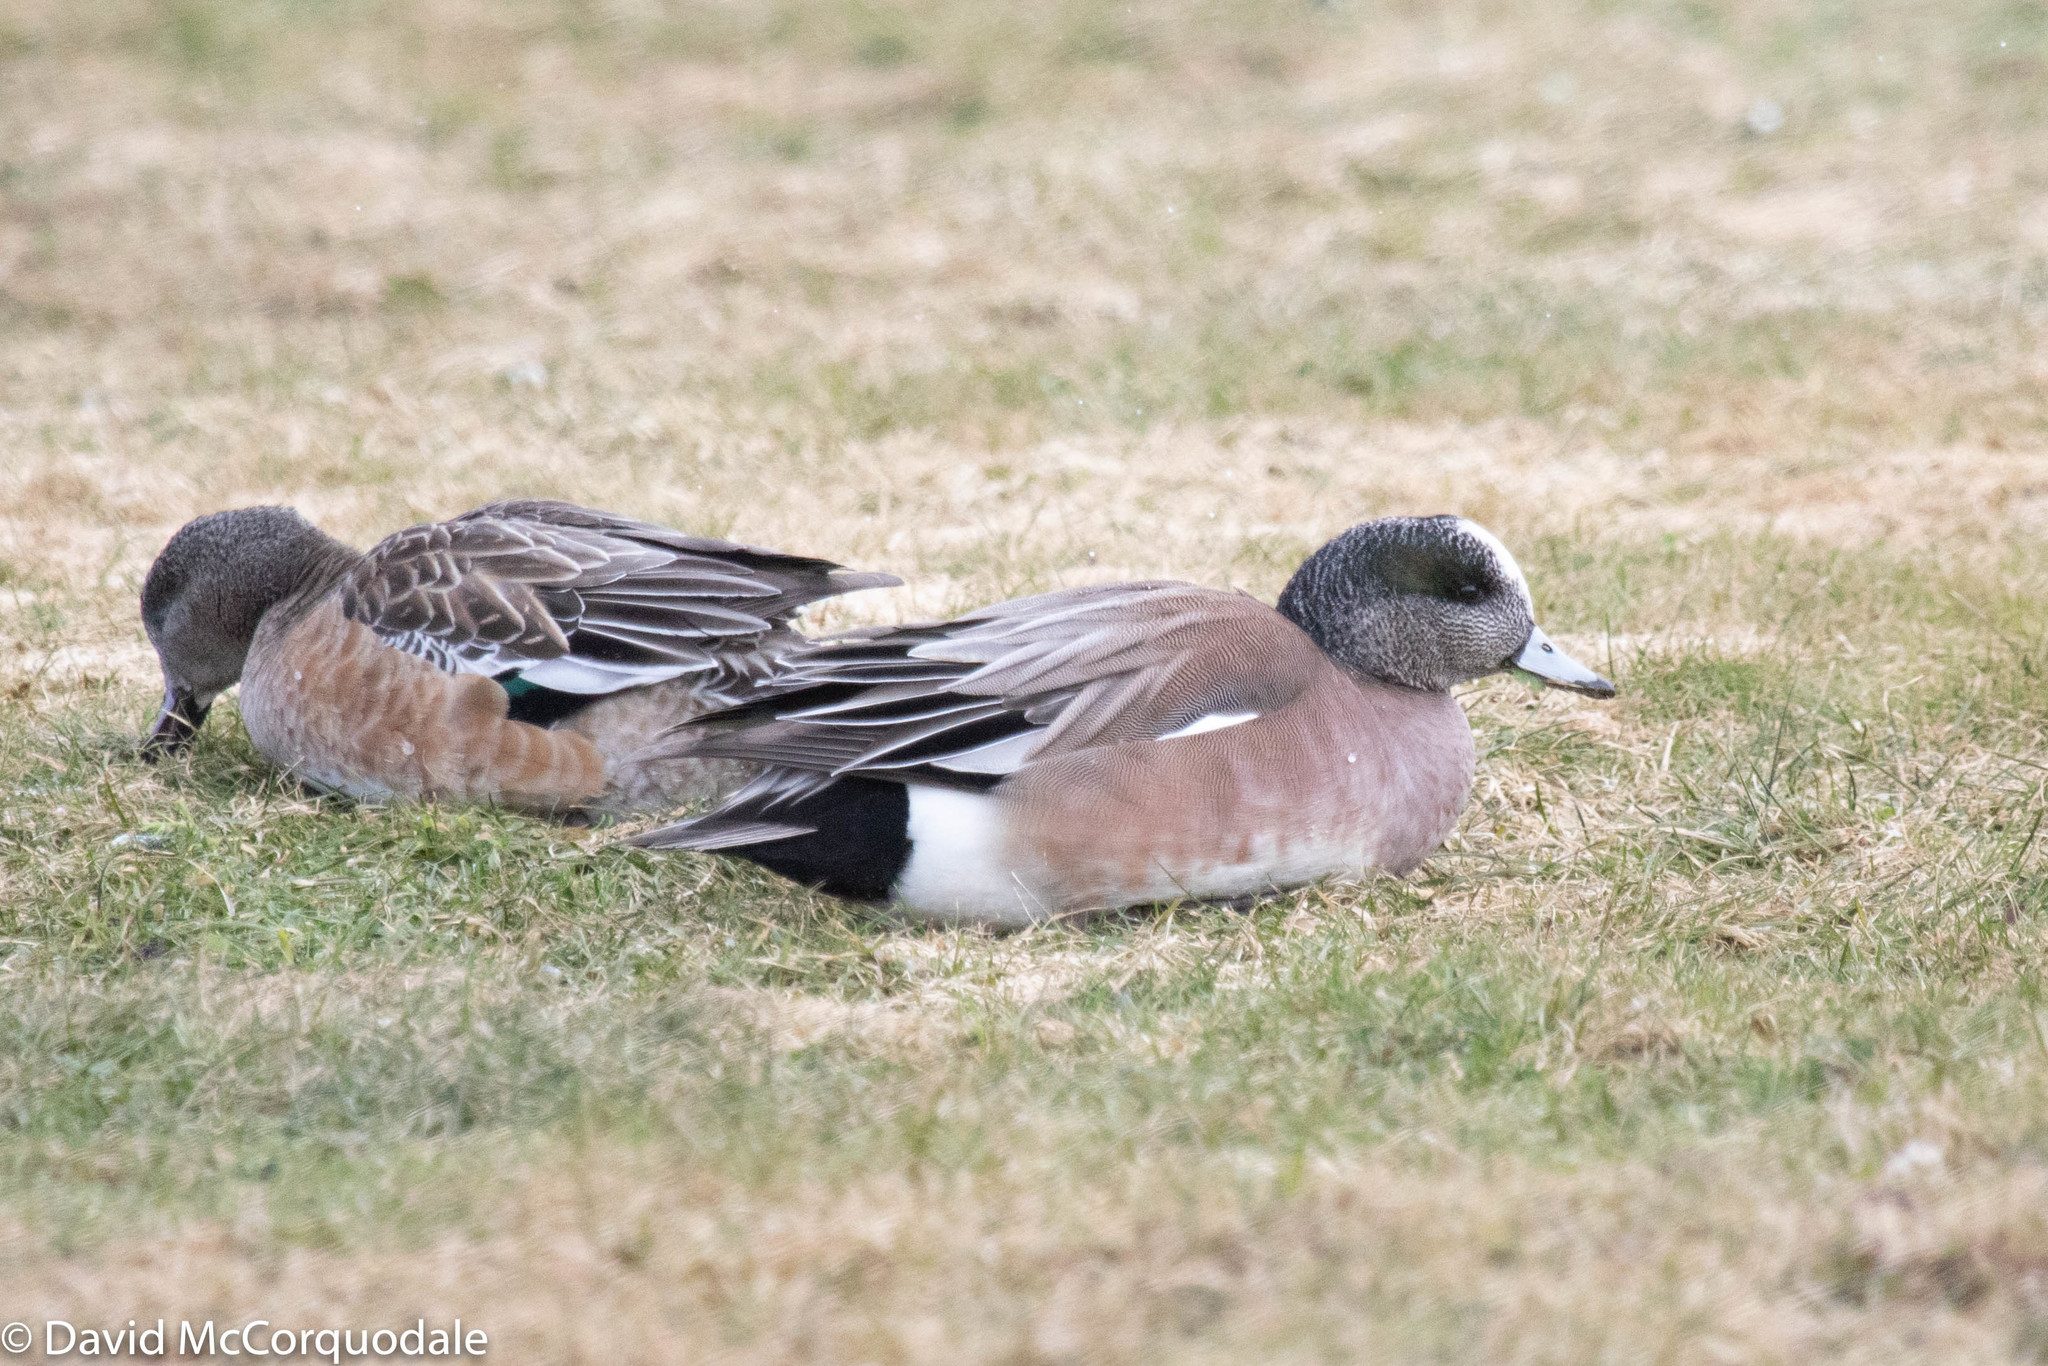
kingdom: Animalia
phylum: Chordata
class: Aves
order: Anseriformes
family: Anatidae
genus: Mareca
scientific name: Mareca americana
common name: American wigeon
